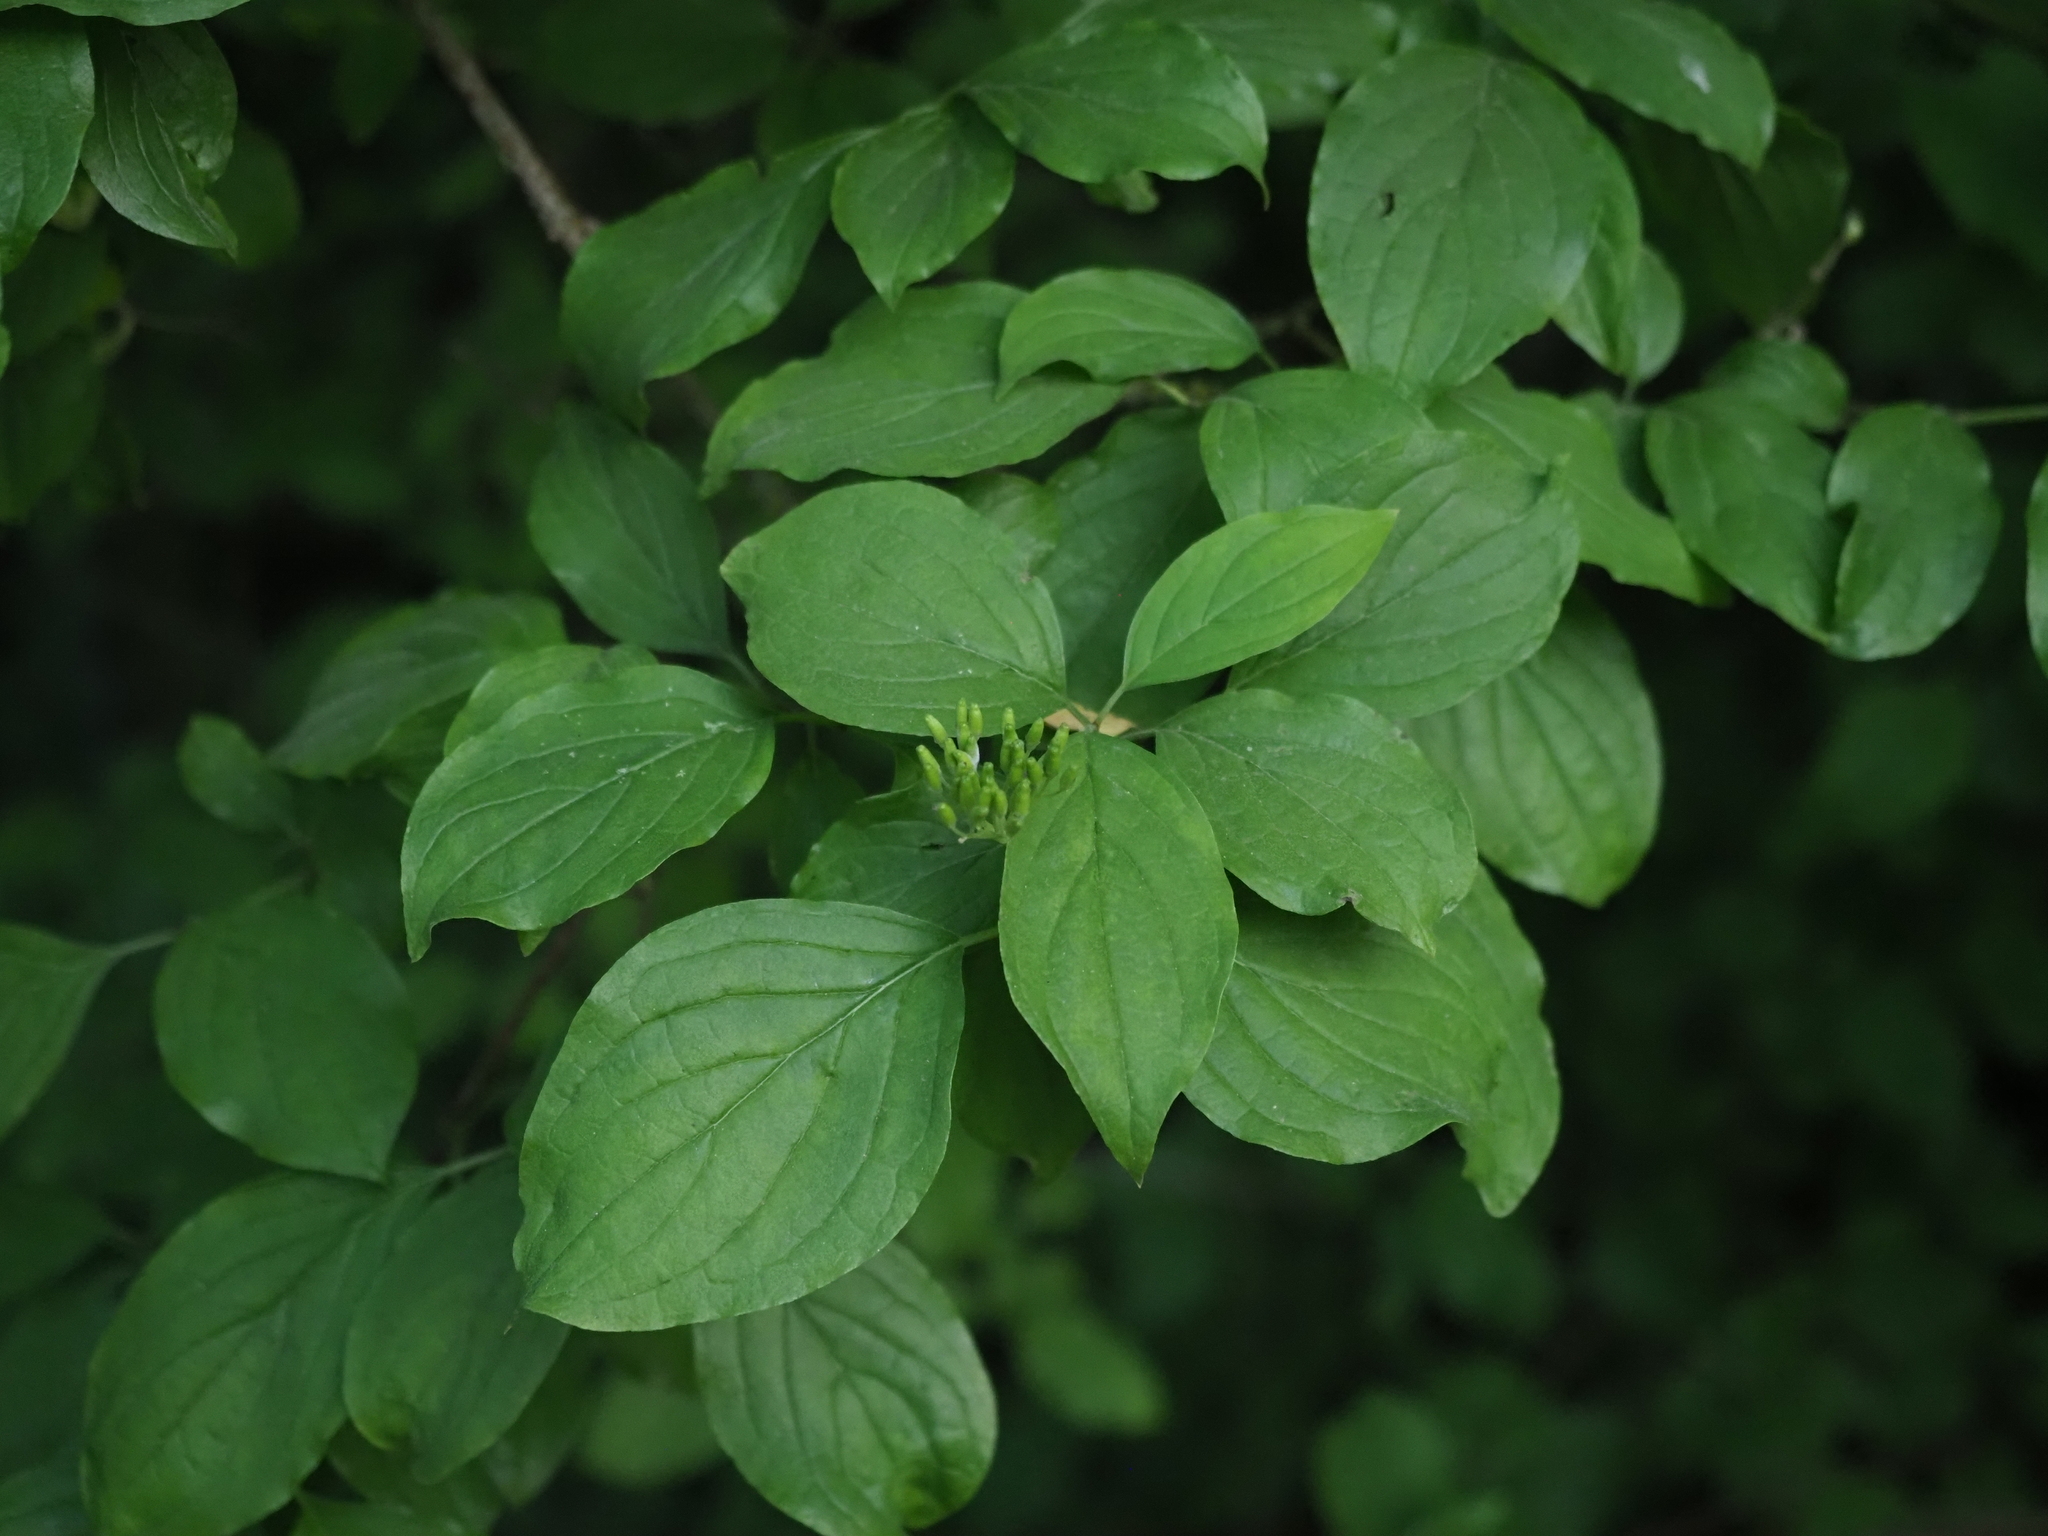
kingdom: Plantae
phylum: Tracheophyta
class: Magnoliopsida
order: Cornales
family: Cornaceae
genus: Cornus
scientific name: Cornus sanguinea
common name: Dogwood
